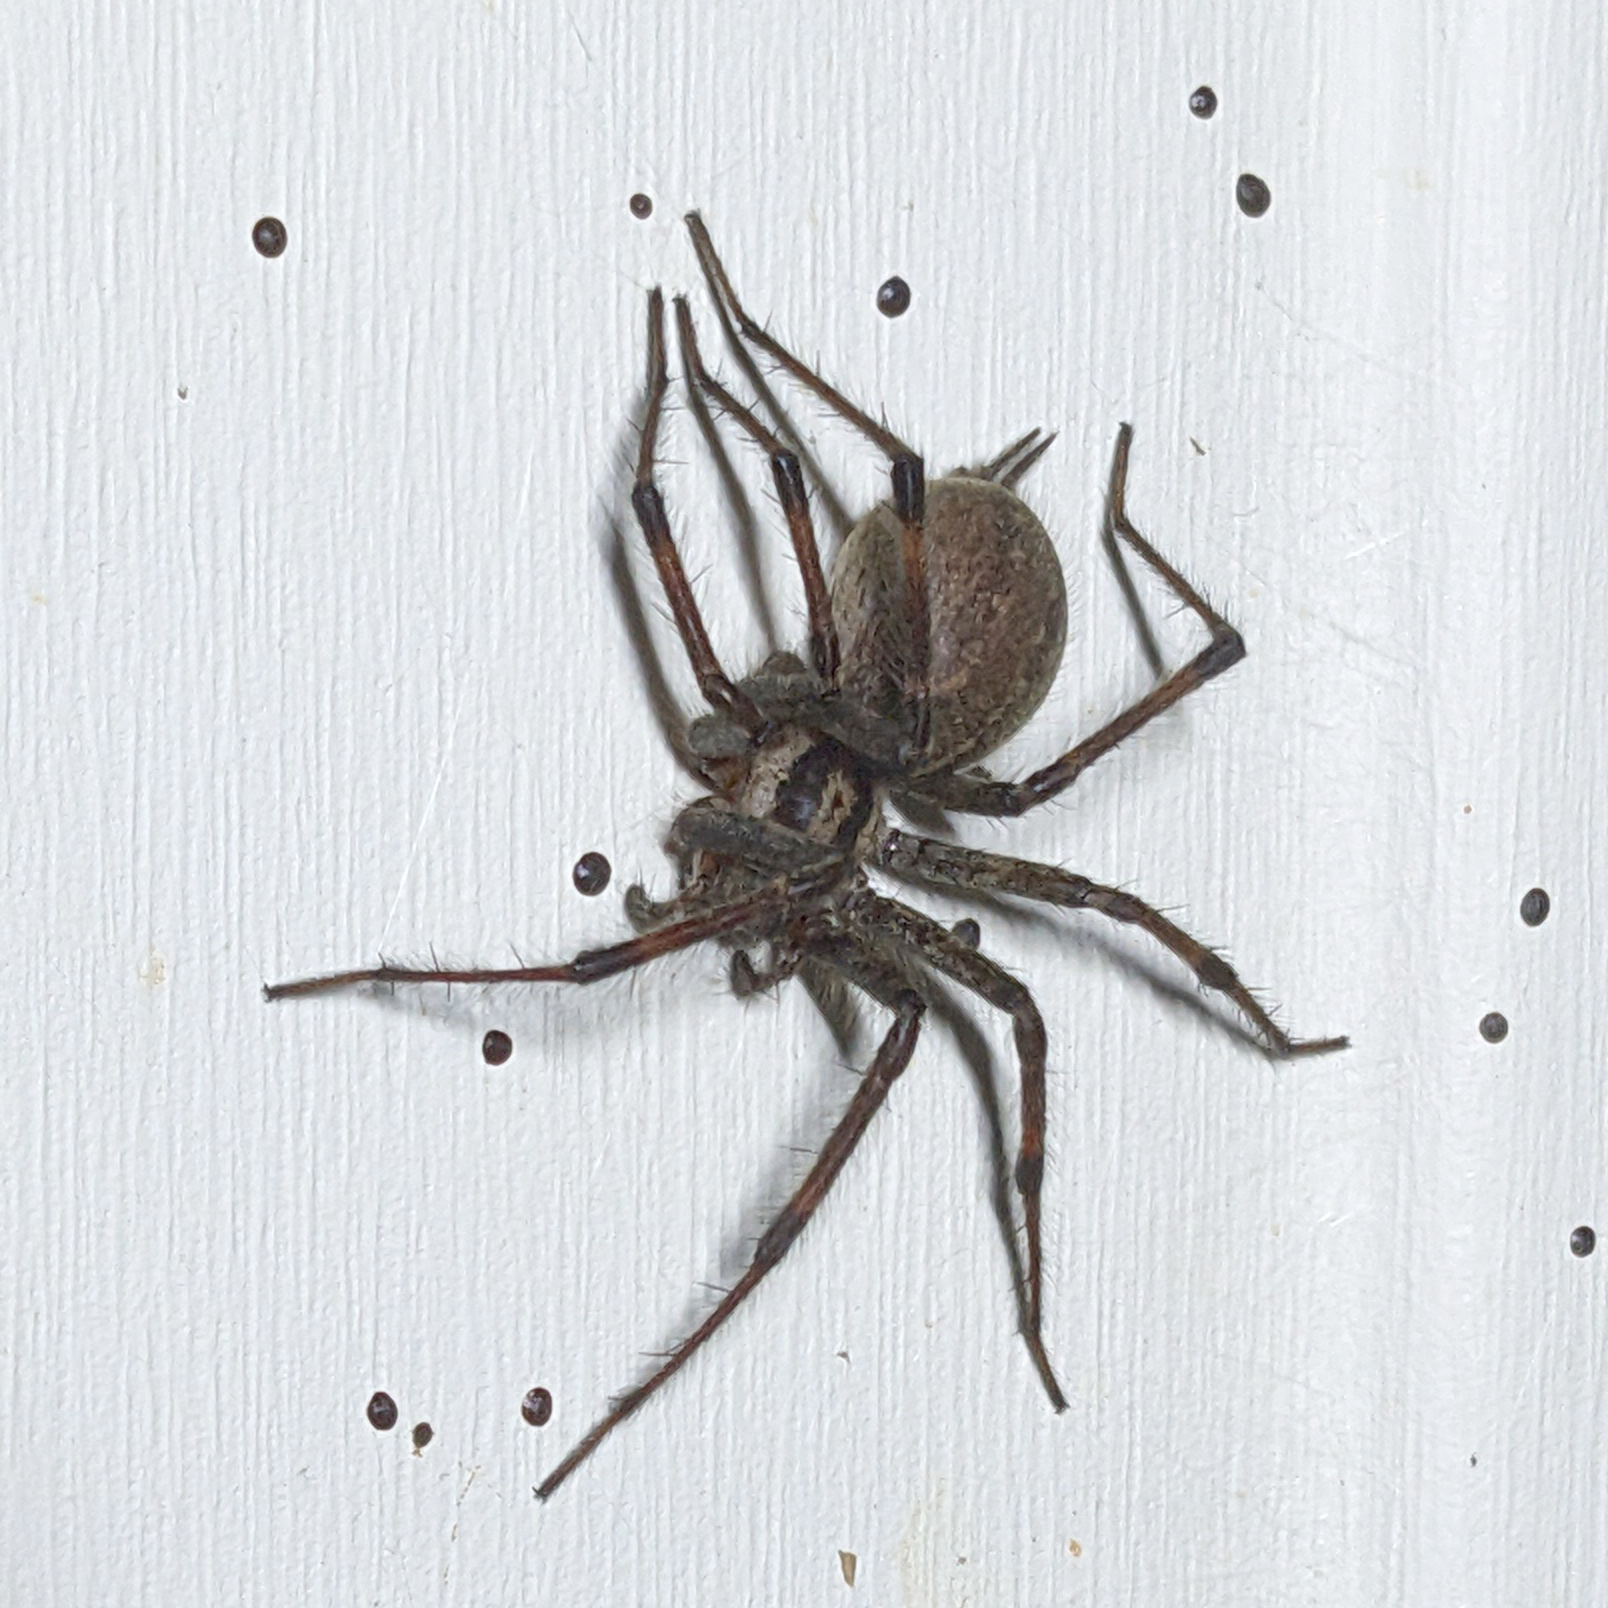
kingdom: Animalia
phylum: Arthropoda
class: Arachnida
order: Araneae
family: Agelenidae
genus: Agelenopsis
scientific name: Agelenopsis
